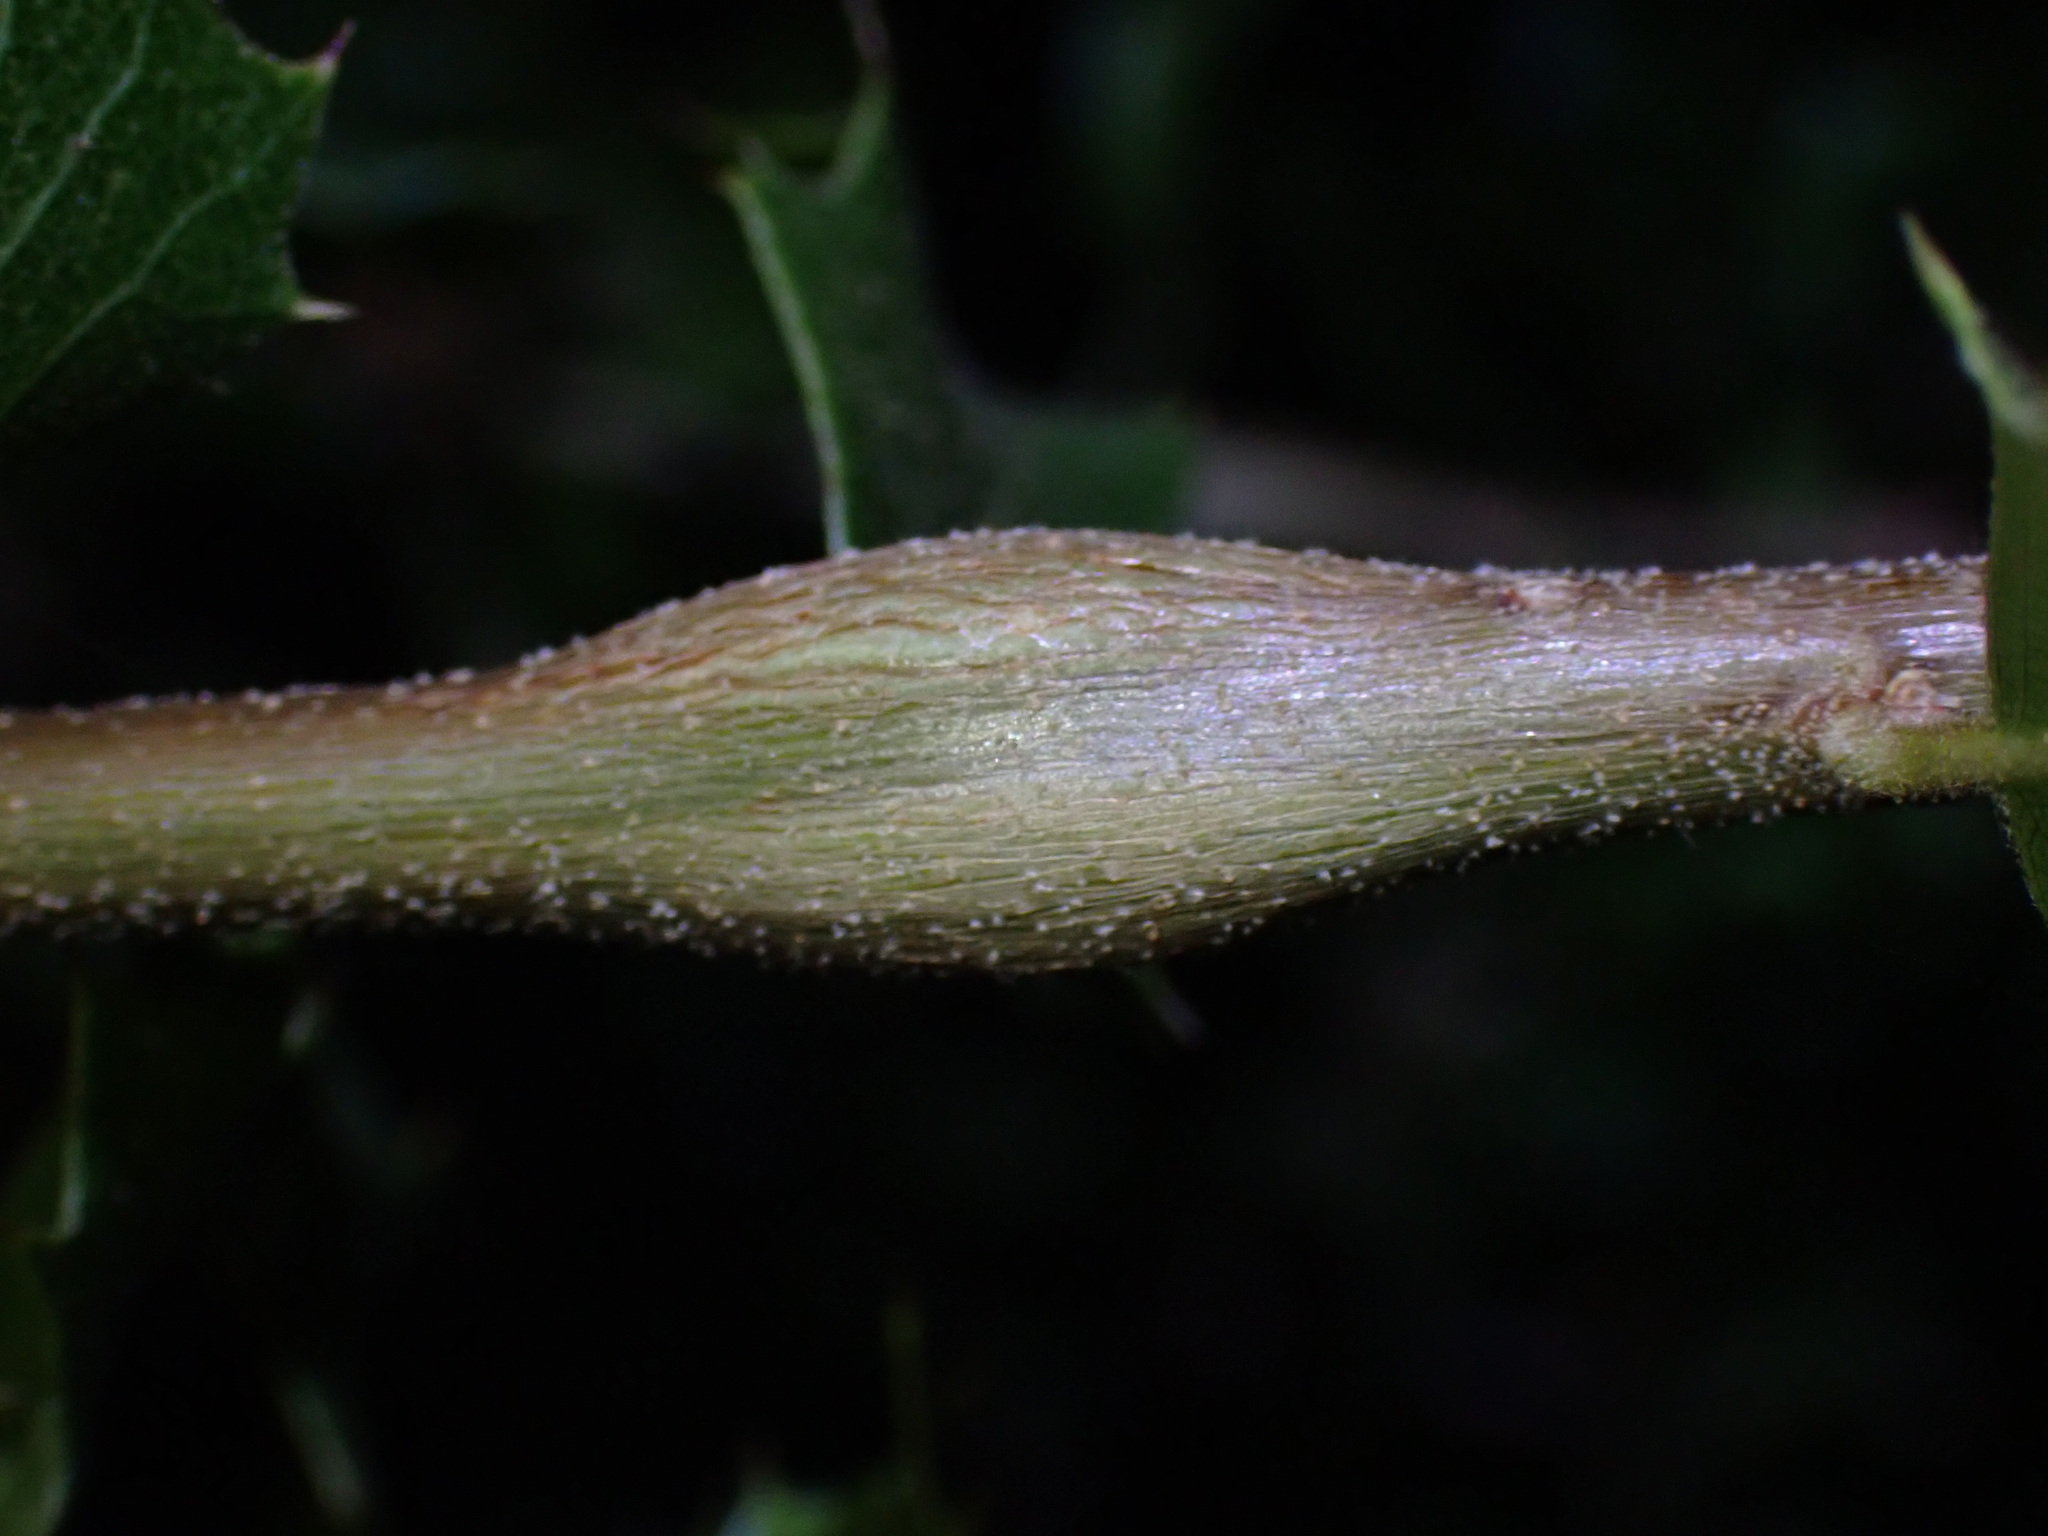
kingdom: Animalia
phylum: Arthropoda
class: Insecta
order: Hymenoptera
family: Cynipidae
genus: Callirhytis
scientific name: Callirhytis
